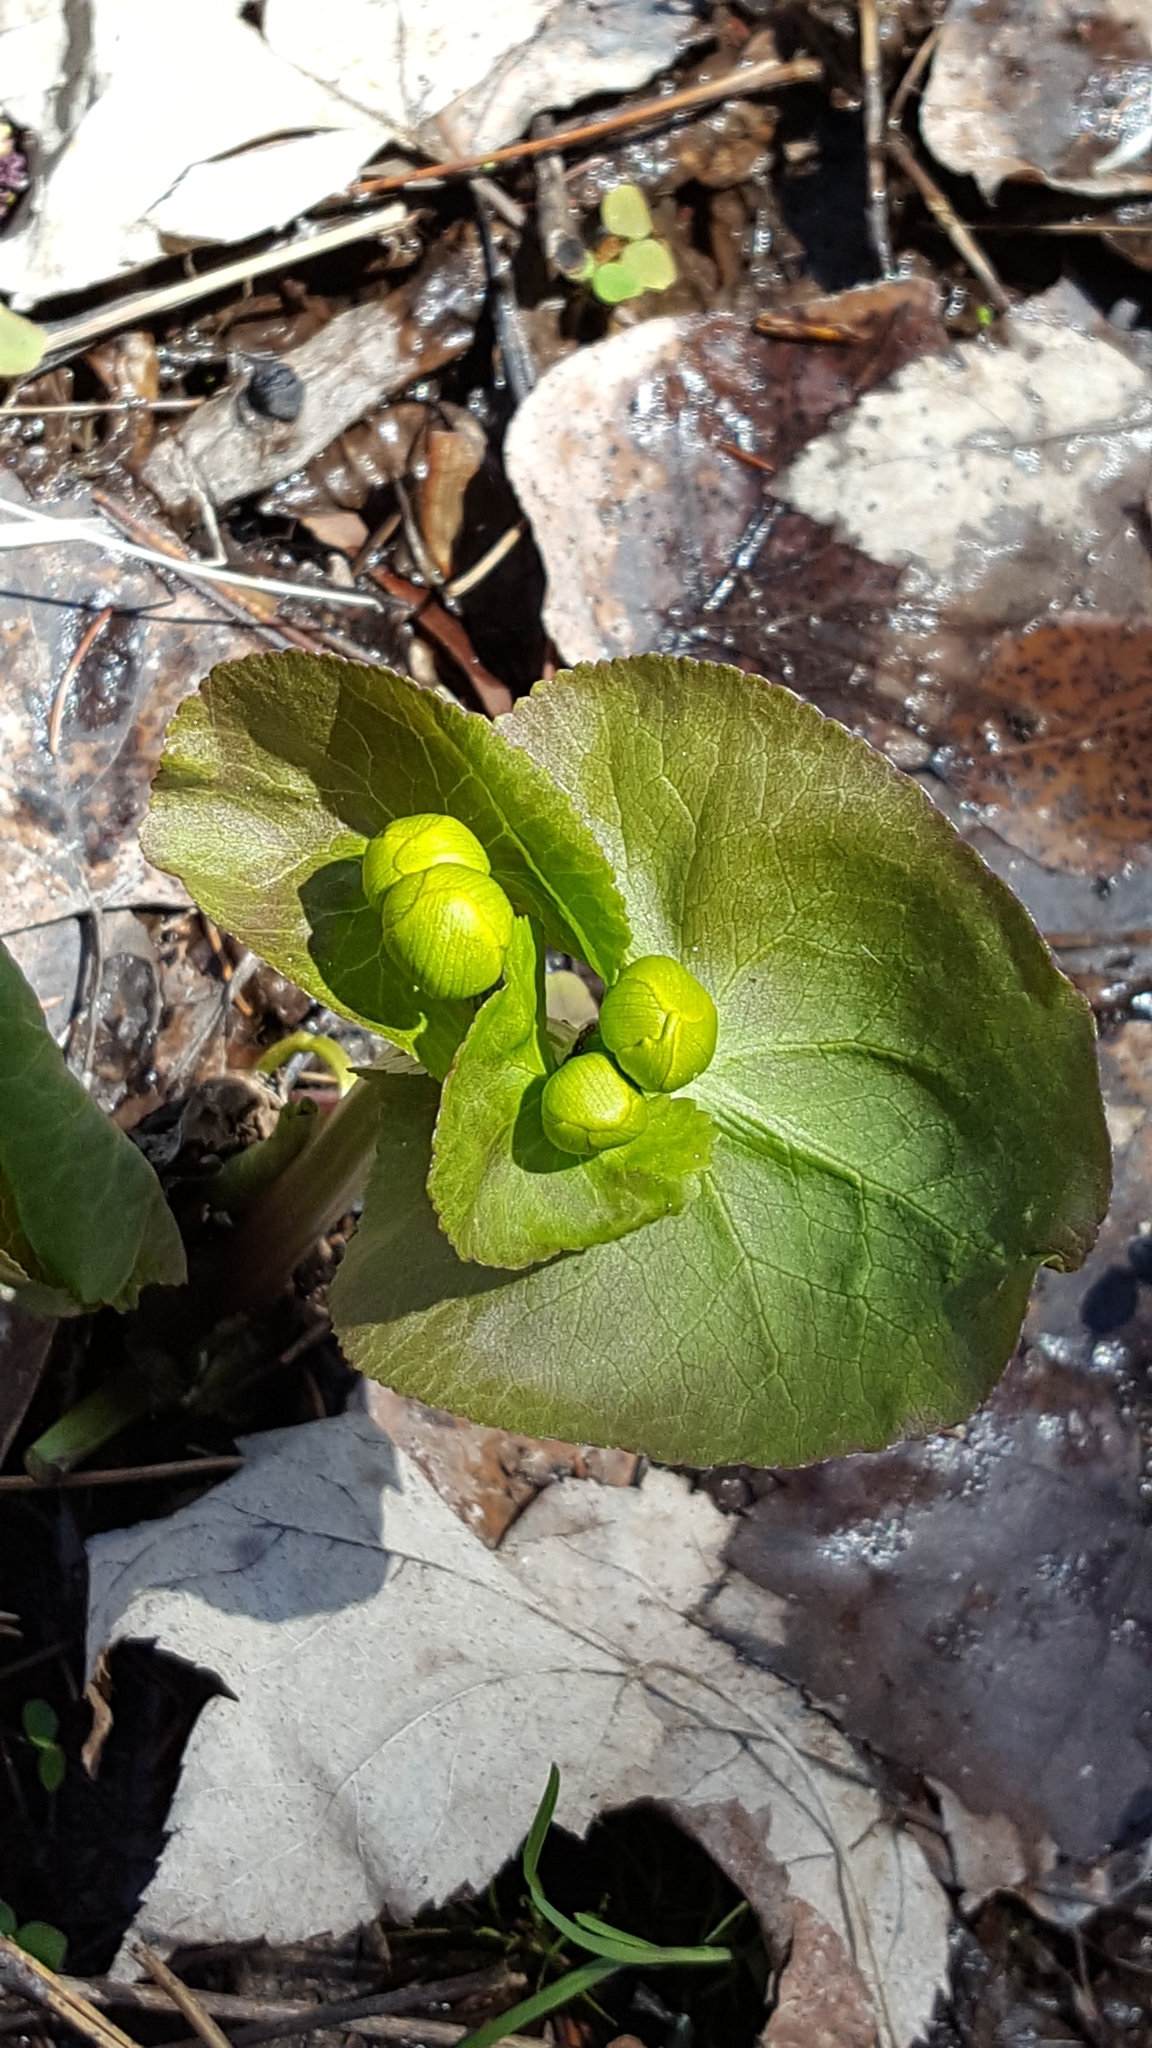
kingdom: Plantae
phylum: Tracheophyta
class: Magnoliopsida
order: Ranunculales
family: Ranunculaceae
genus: Caltha
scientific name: Caltha palustris
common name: Marsh marigold
